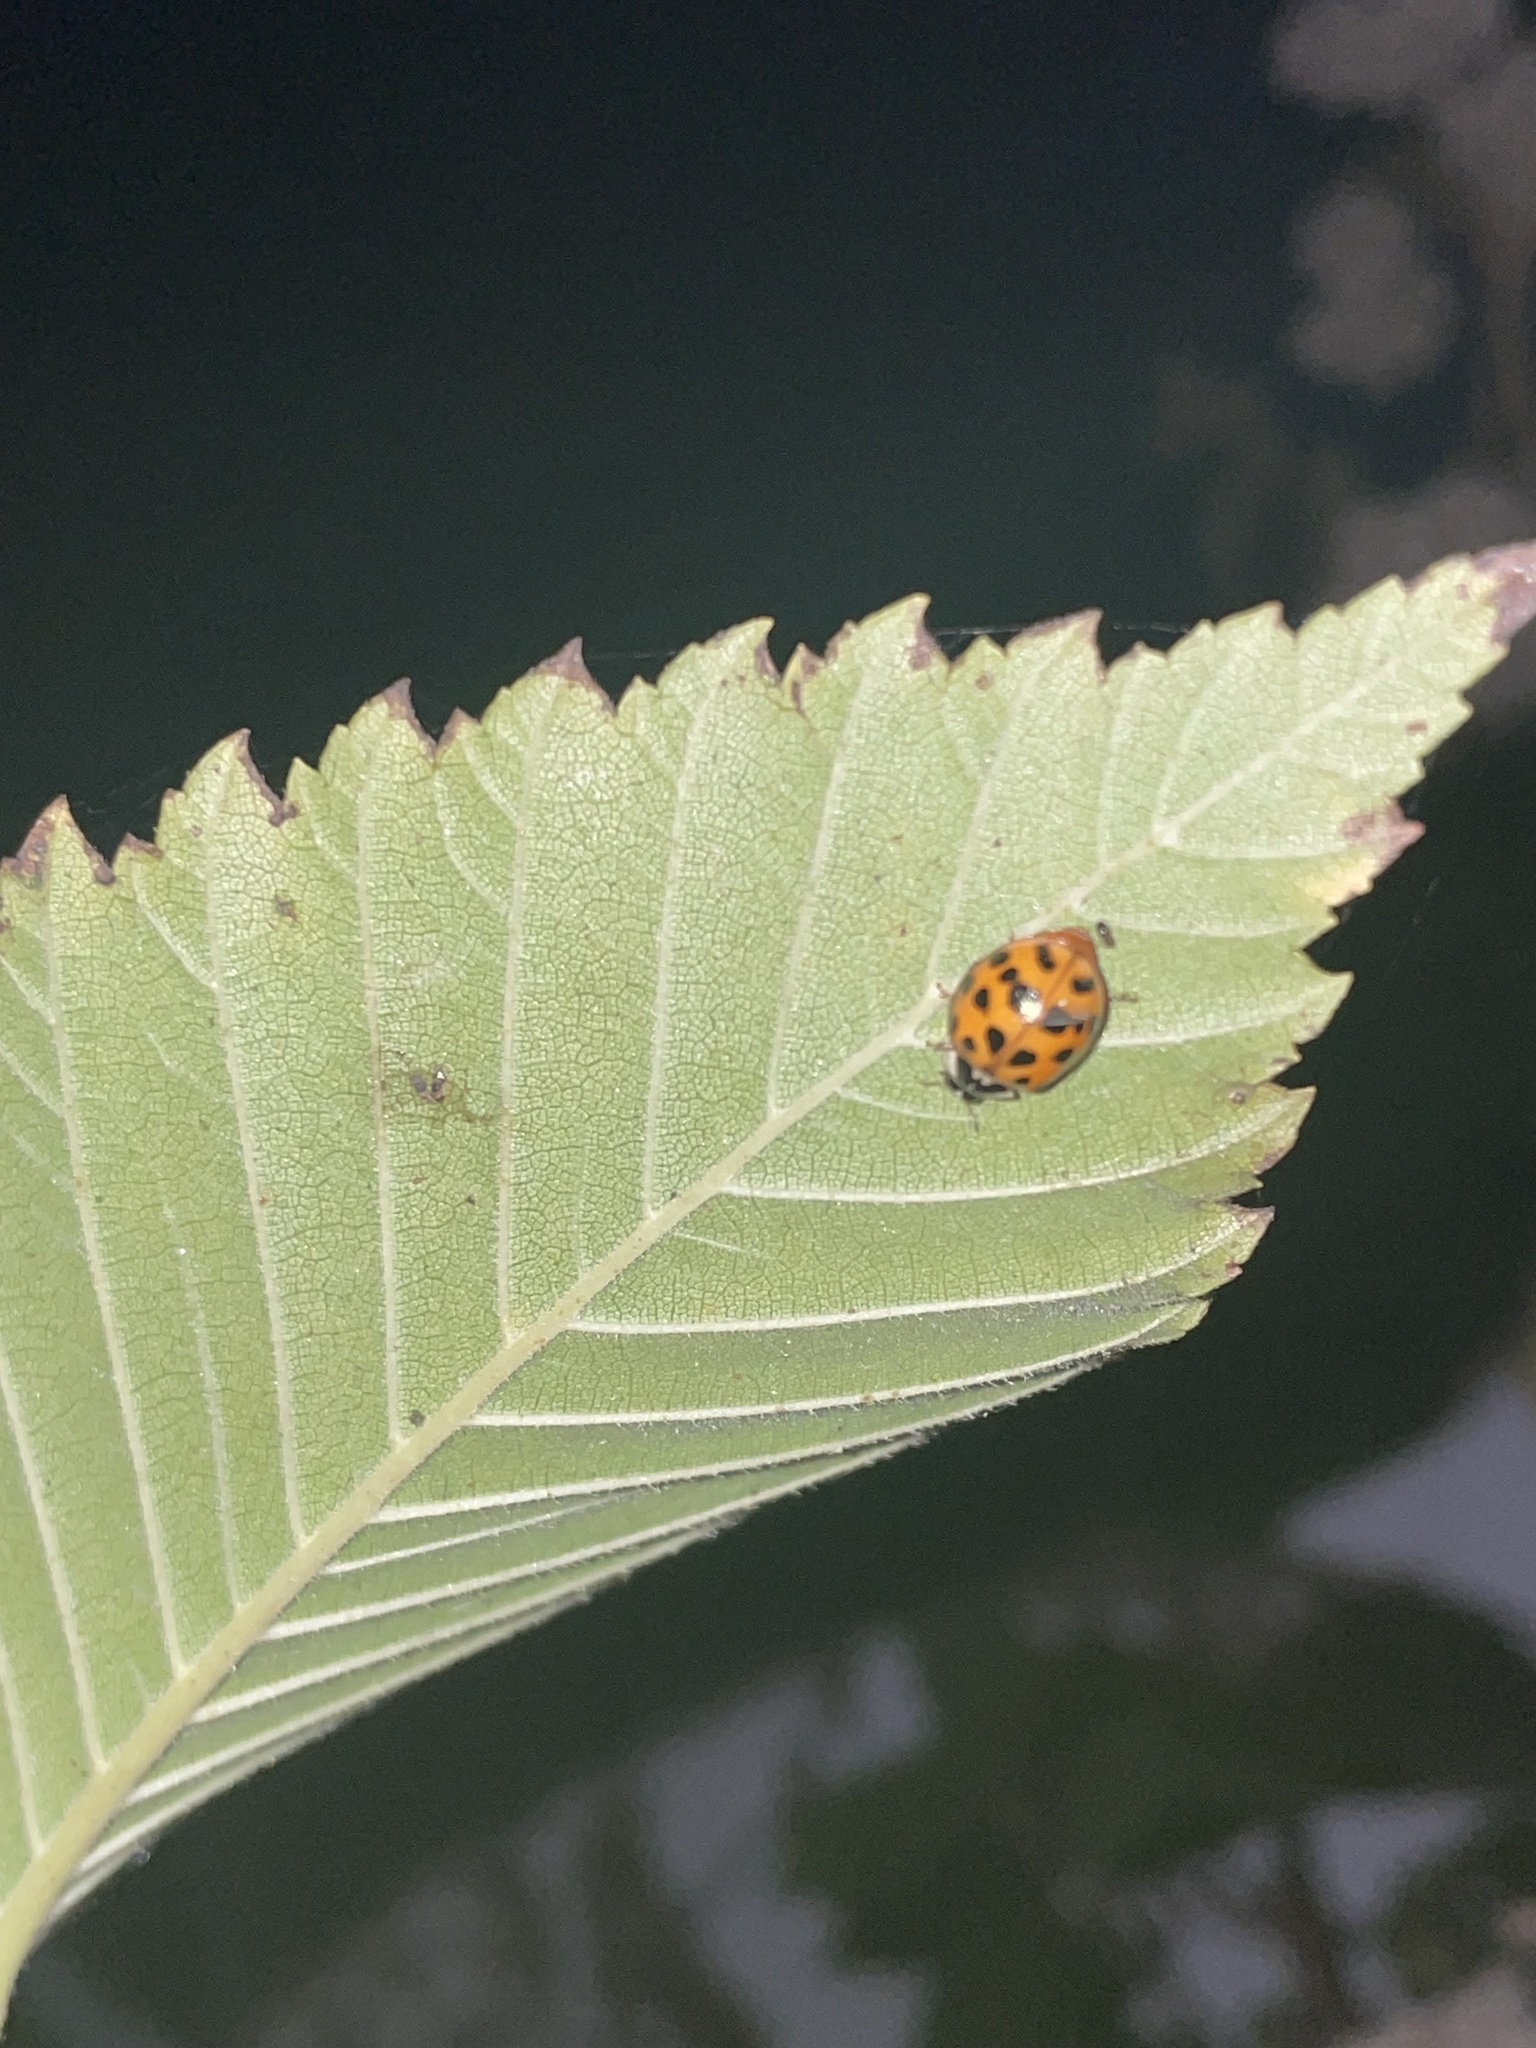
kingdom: Animalia
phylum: Arthropoda
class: Insecta
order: Coleoptera
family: Coccinellidae
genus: Harmonia
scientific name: Harmonia axyridis
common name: Harlequin ladybird
